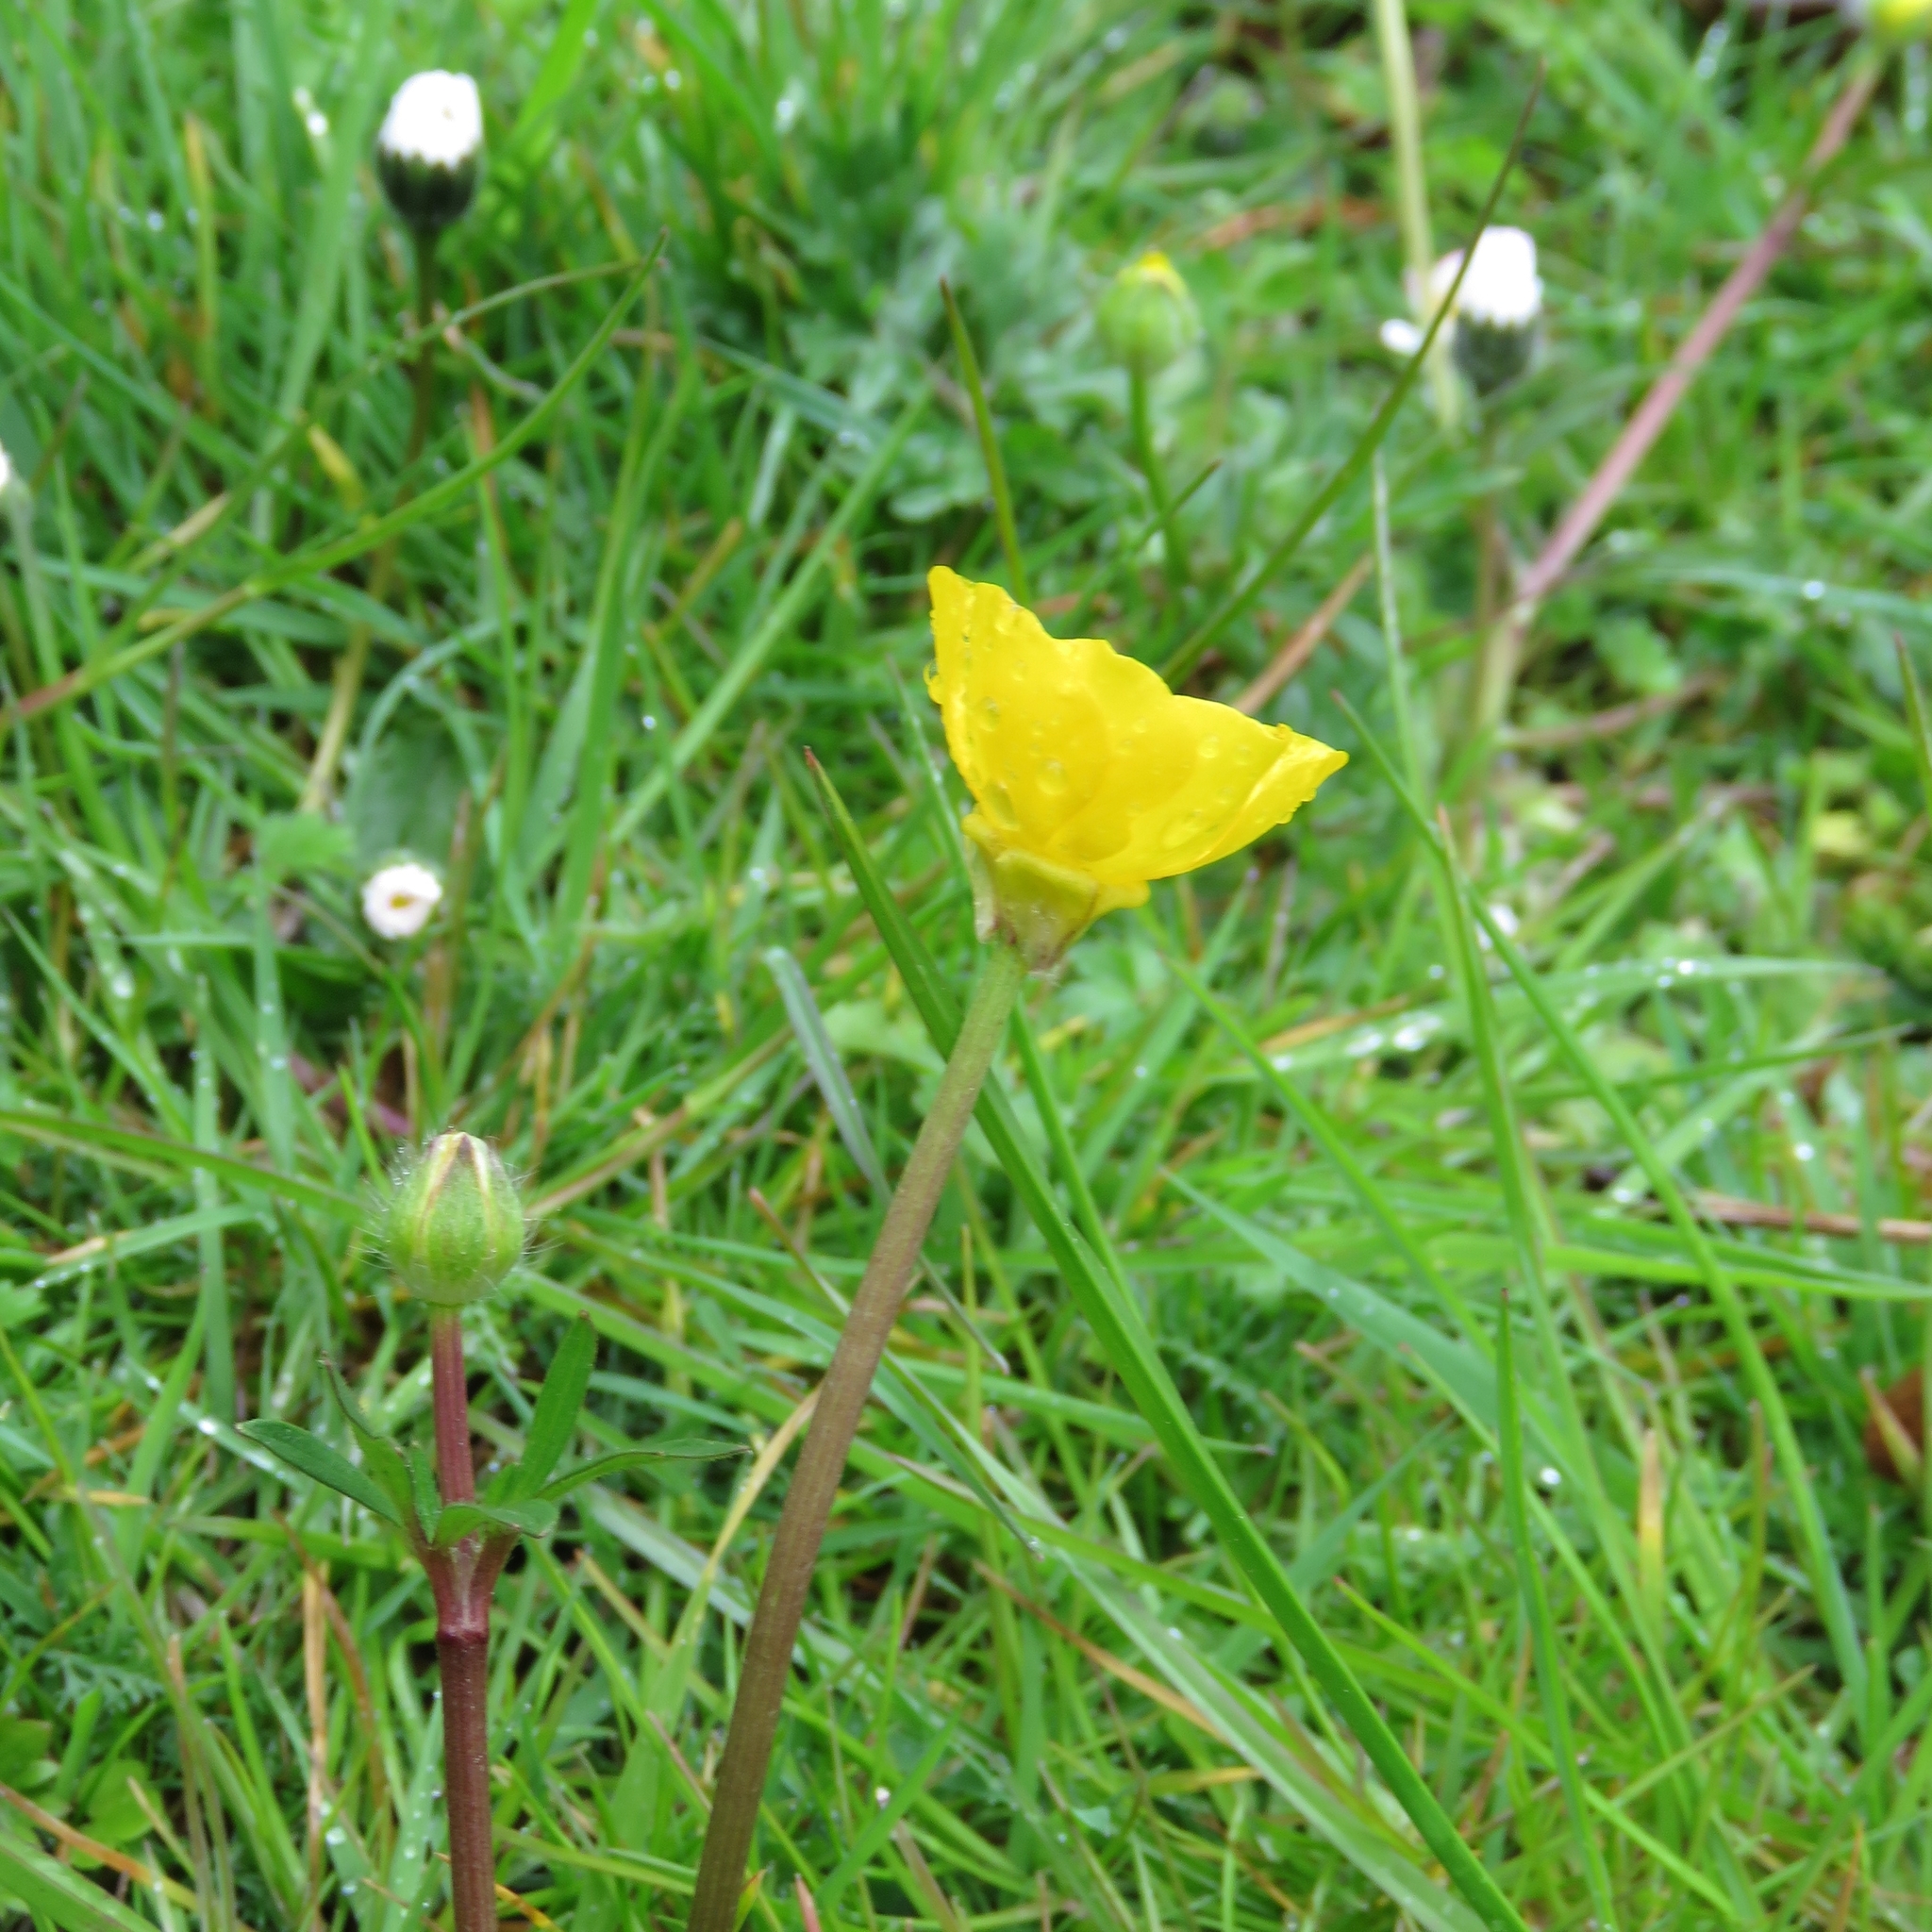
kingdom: Plantae
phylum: Tracheophyta
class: Magnoliopsida
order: Ranunculales
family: Ranunculaceae
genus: Ranunculus
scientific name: Ranunculus bulbosus
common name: Bulbous buttercup
